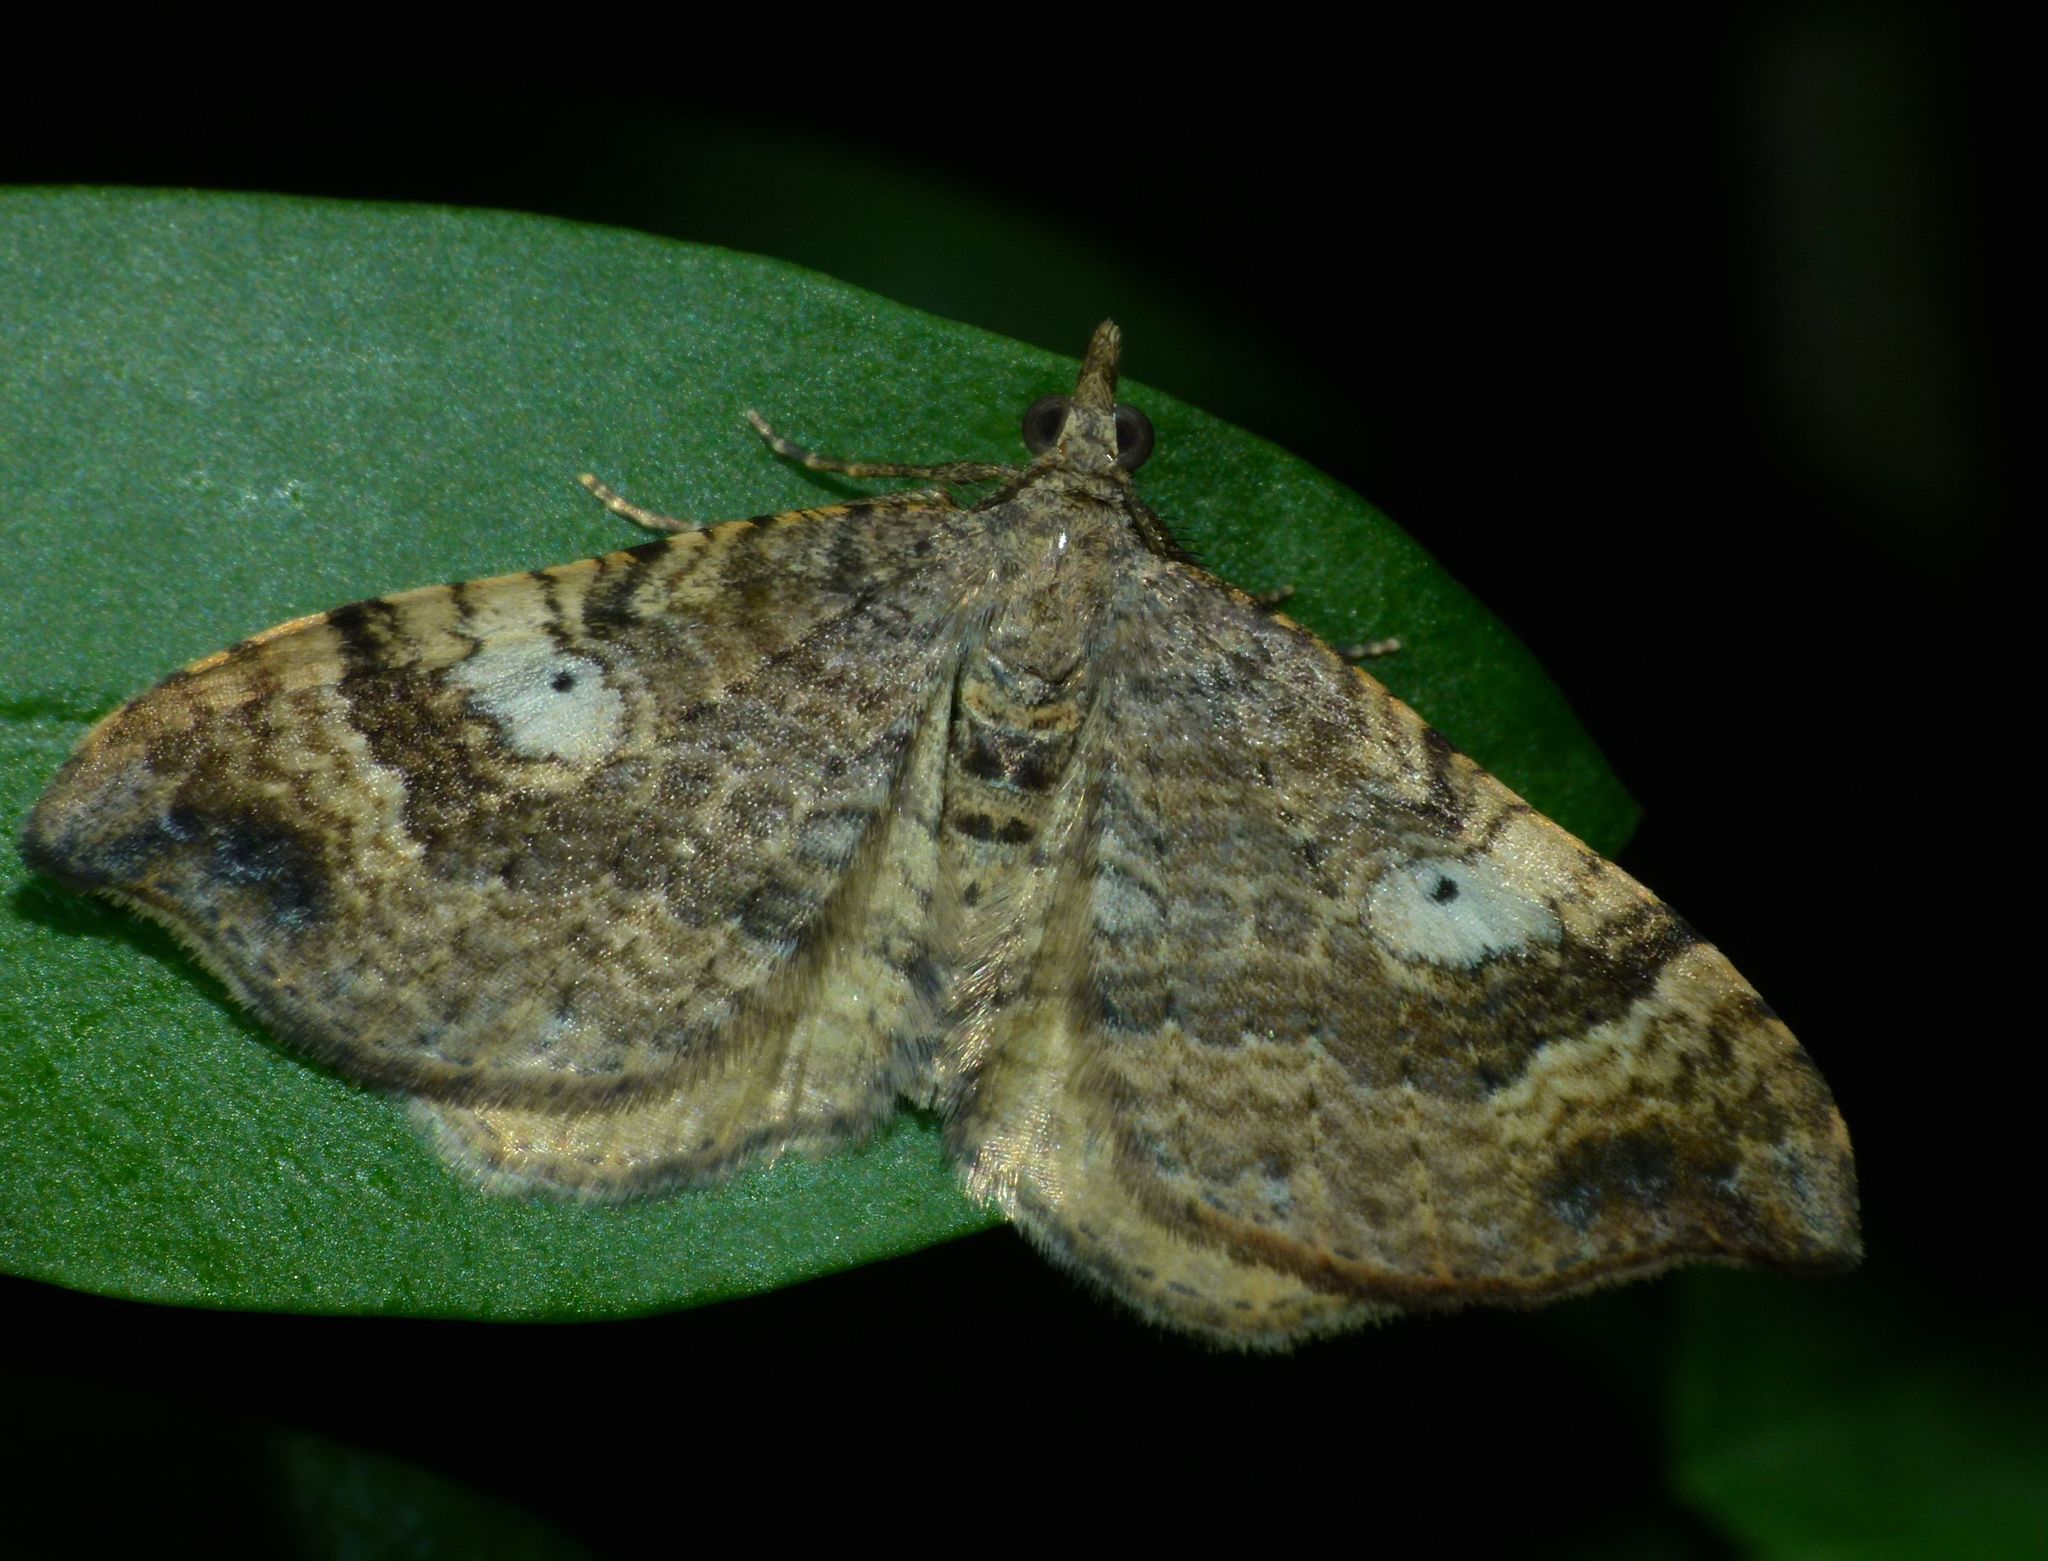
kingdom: Animalia
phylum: Arthropoda
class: Insecta
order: Lepidoptera
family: Geometridae
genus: Homodotis
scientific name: Homodotis megaspilata
